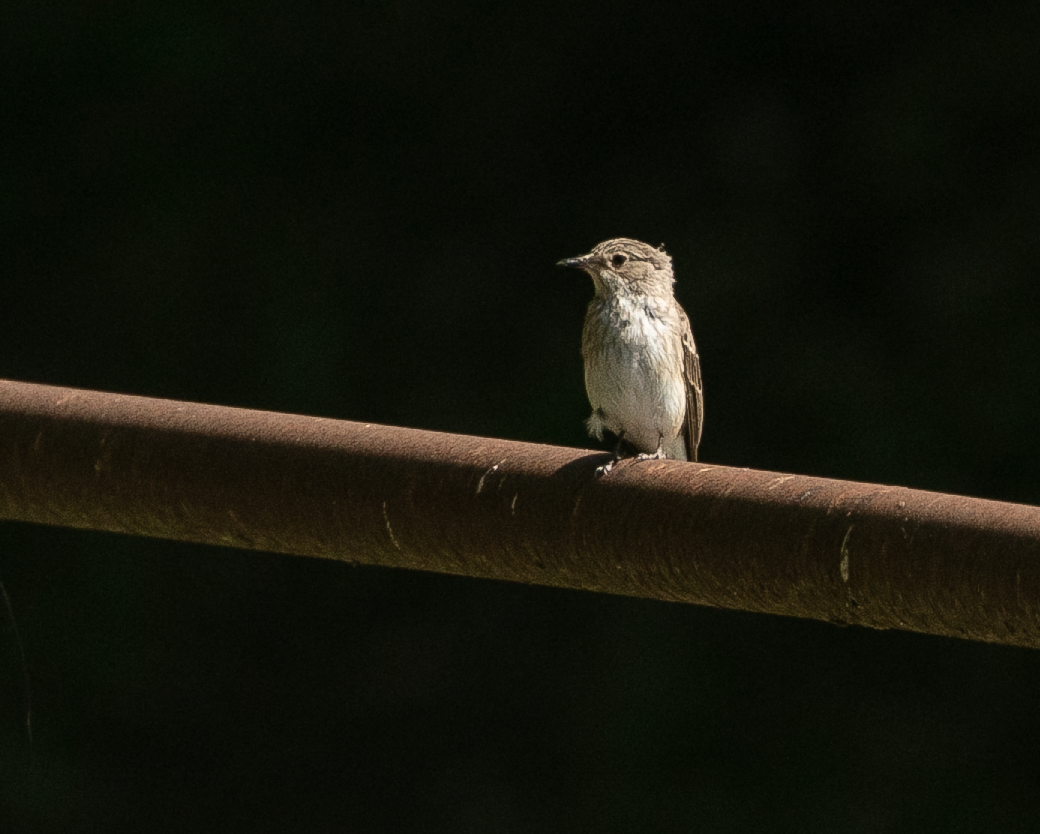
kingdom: Animalia
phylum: Chordata
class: Aves
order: Passeriformes
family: Muscicapidae
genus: Muscicapa
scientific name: Muscicapa striata
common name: Spotted flycatcher
